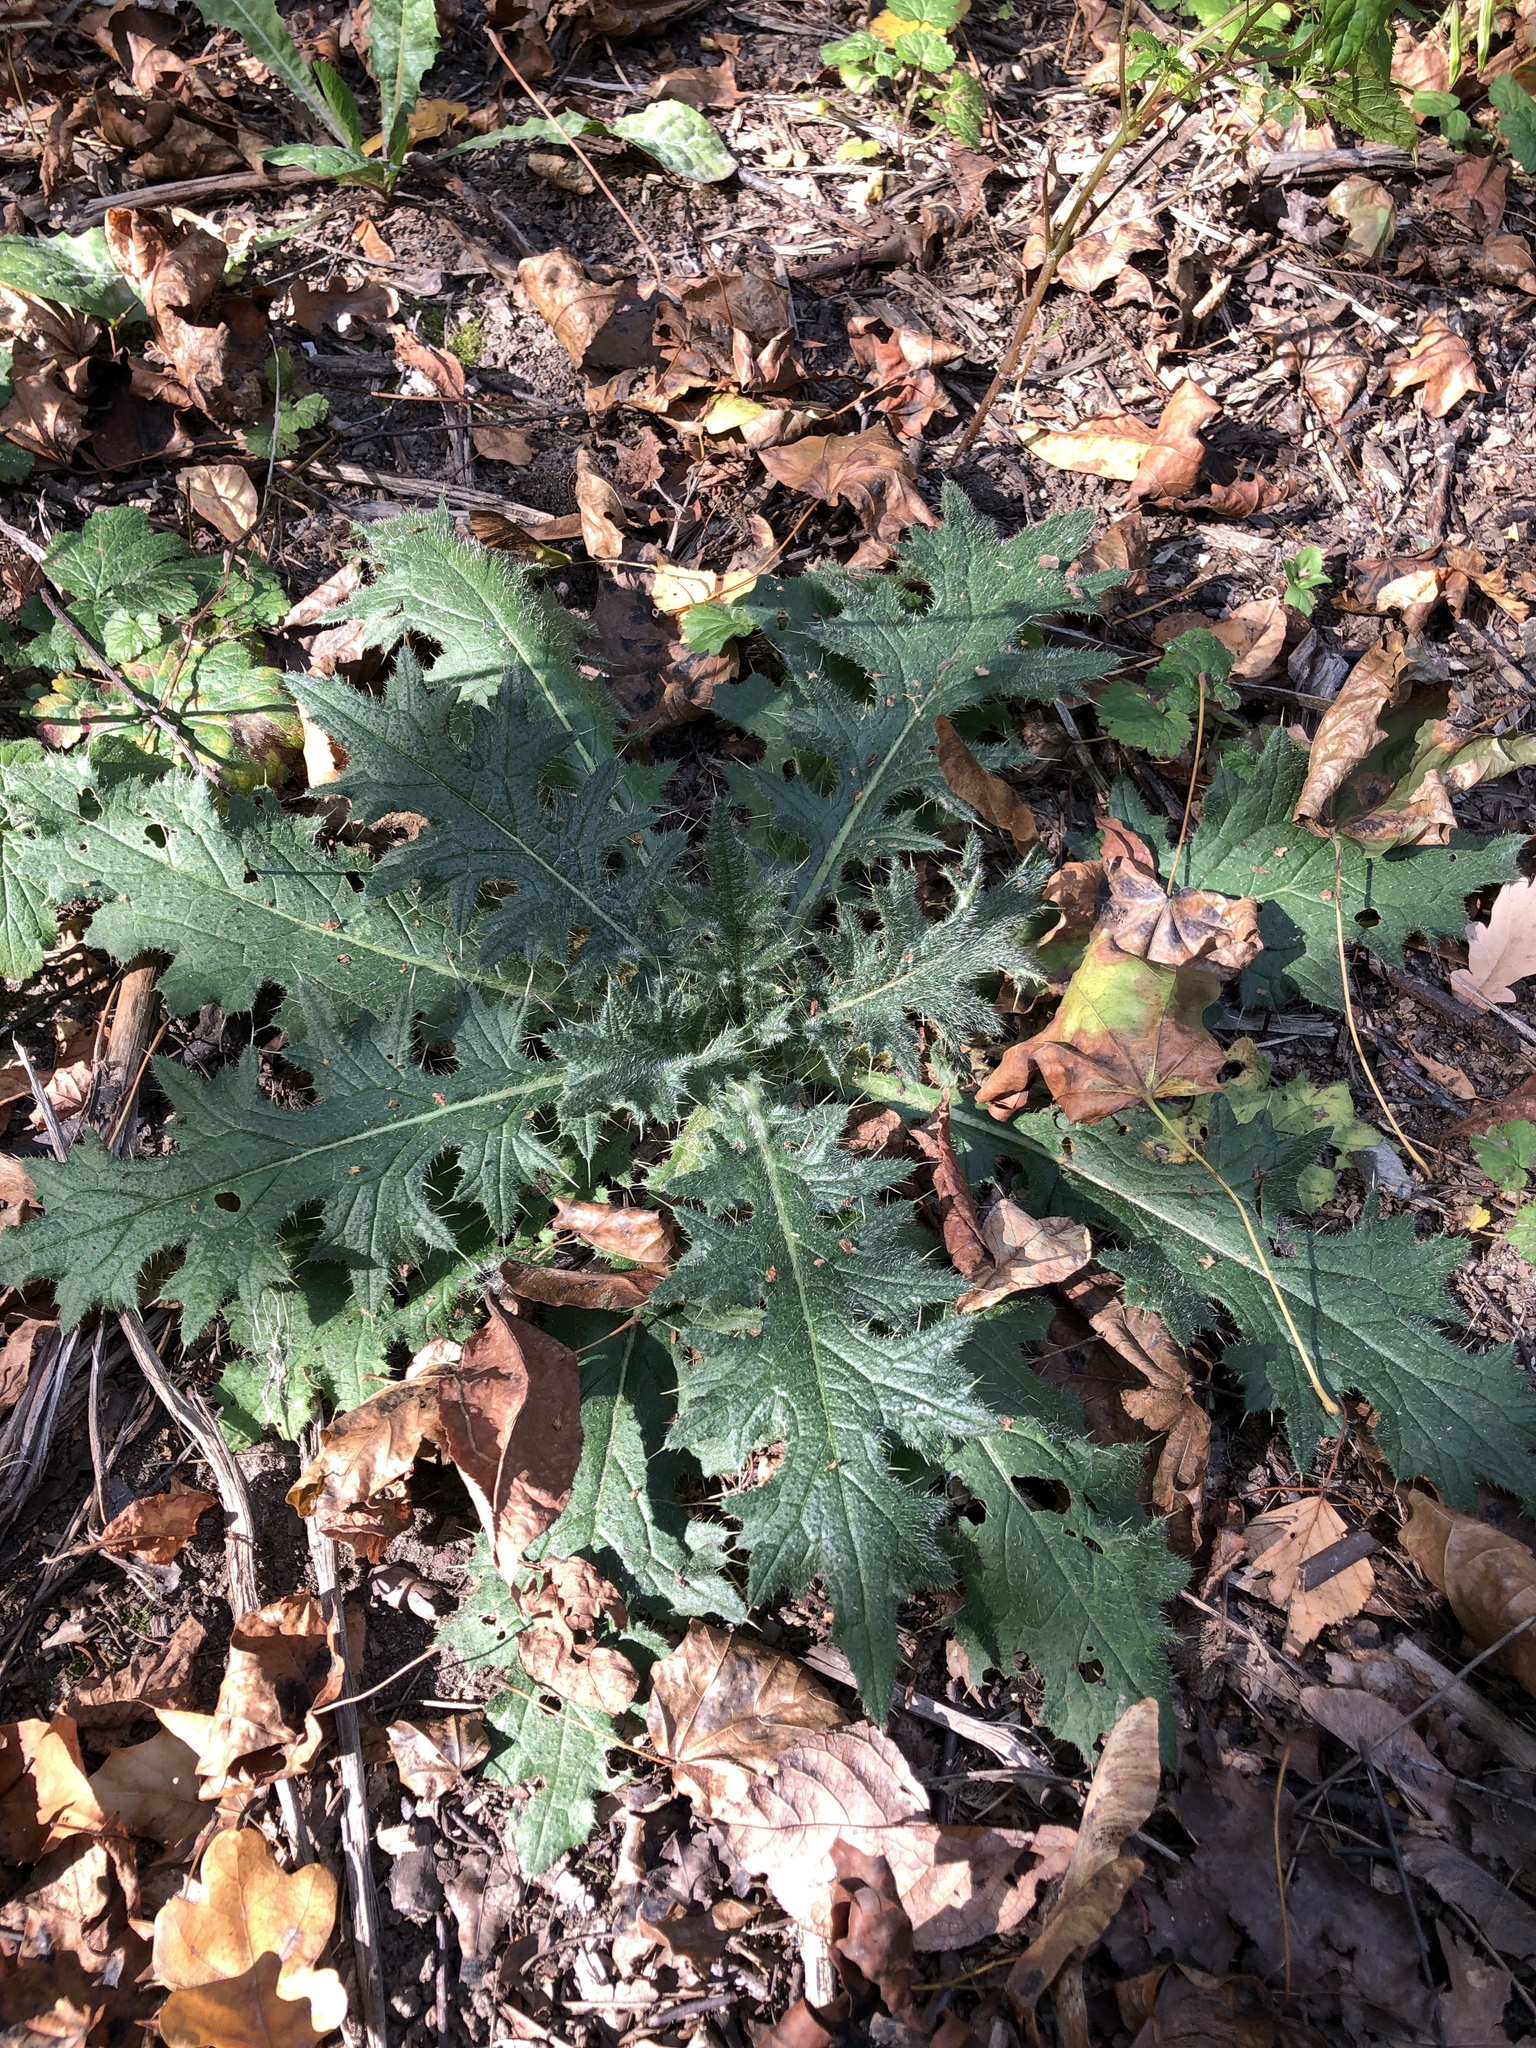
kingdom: Plantae
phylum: Tracheophyta
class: Magnoliopsida
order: Asterales
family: Asteraceae
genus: Cirsium
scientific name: Cirsium vulgare
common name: Bull thistle
